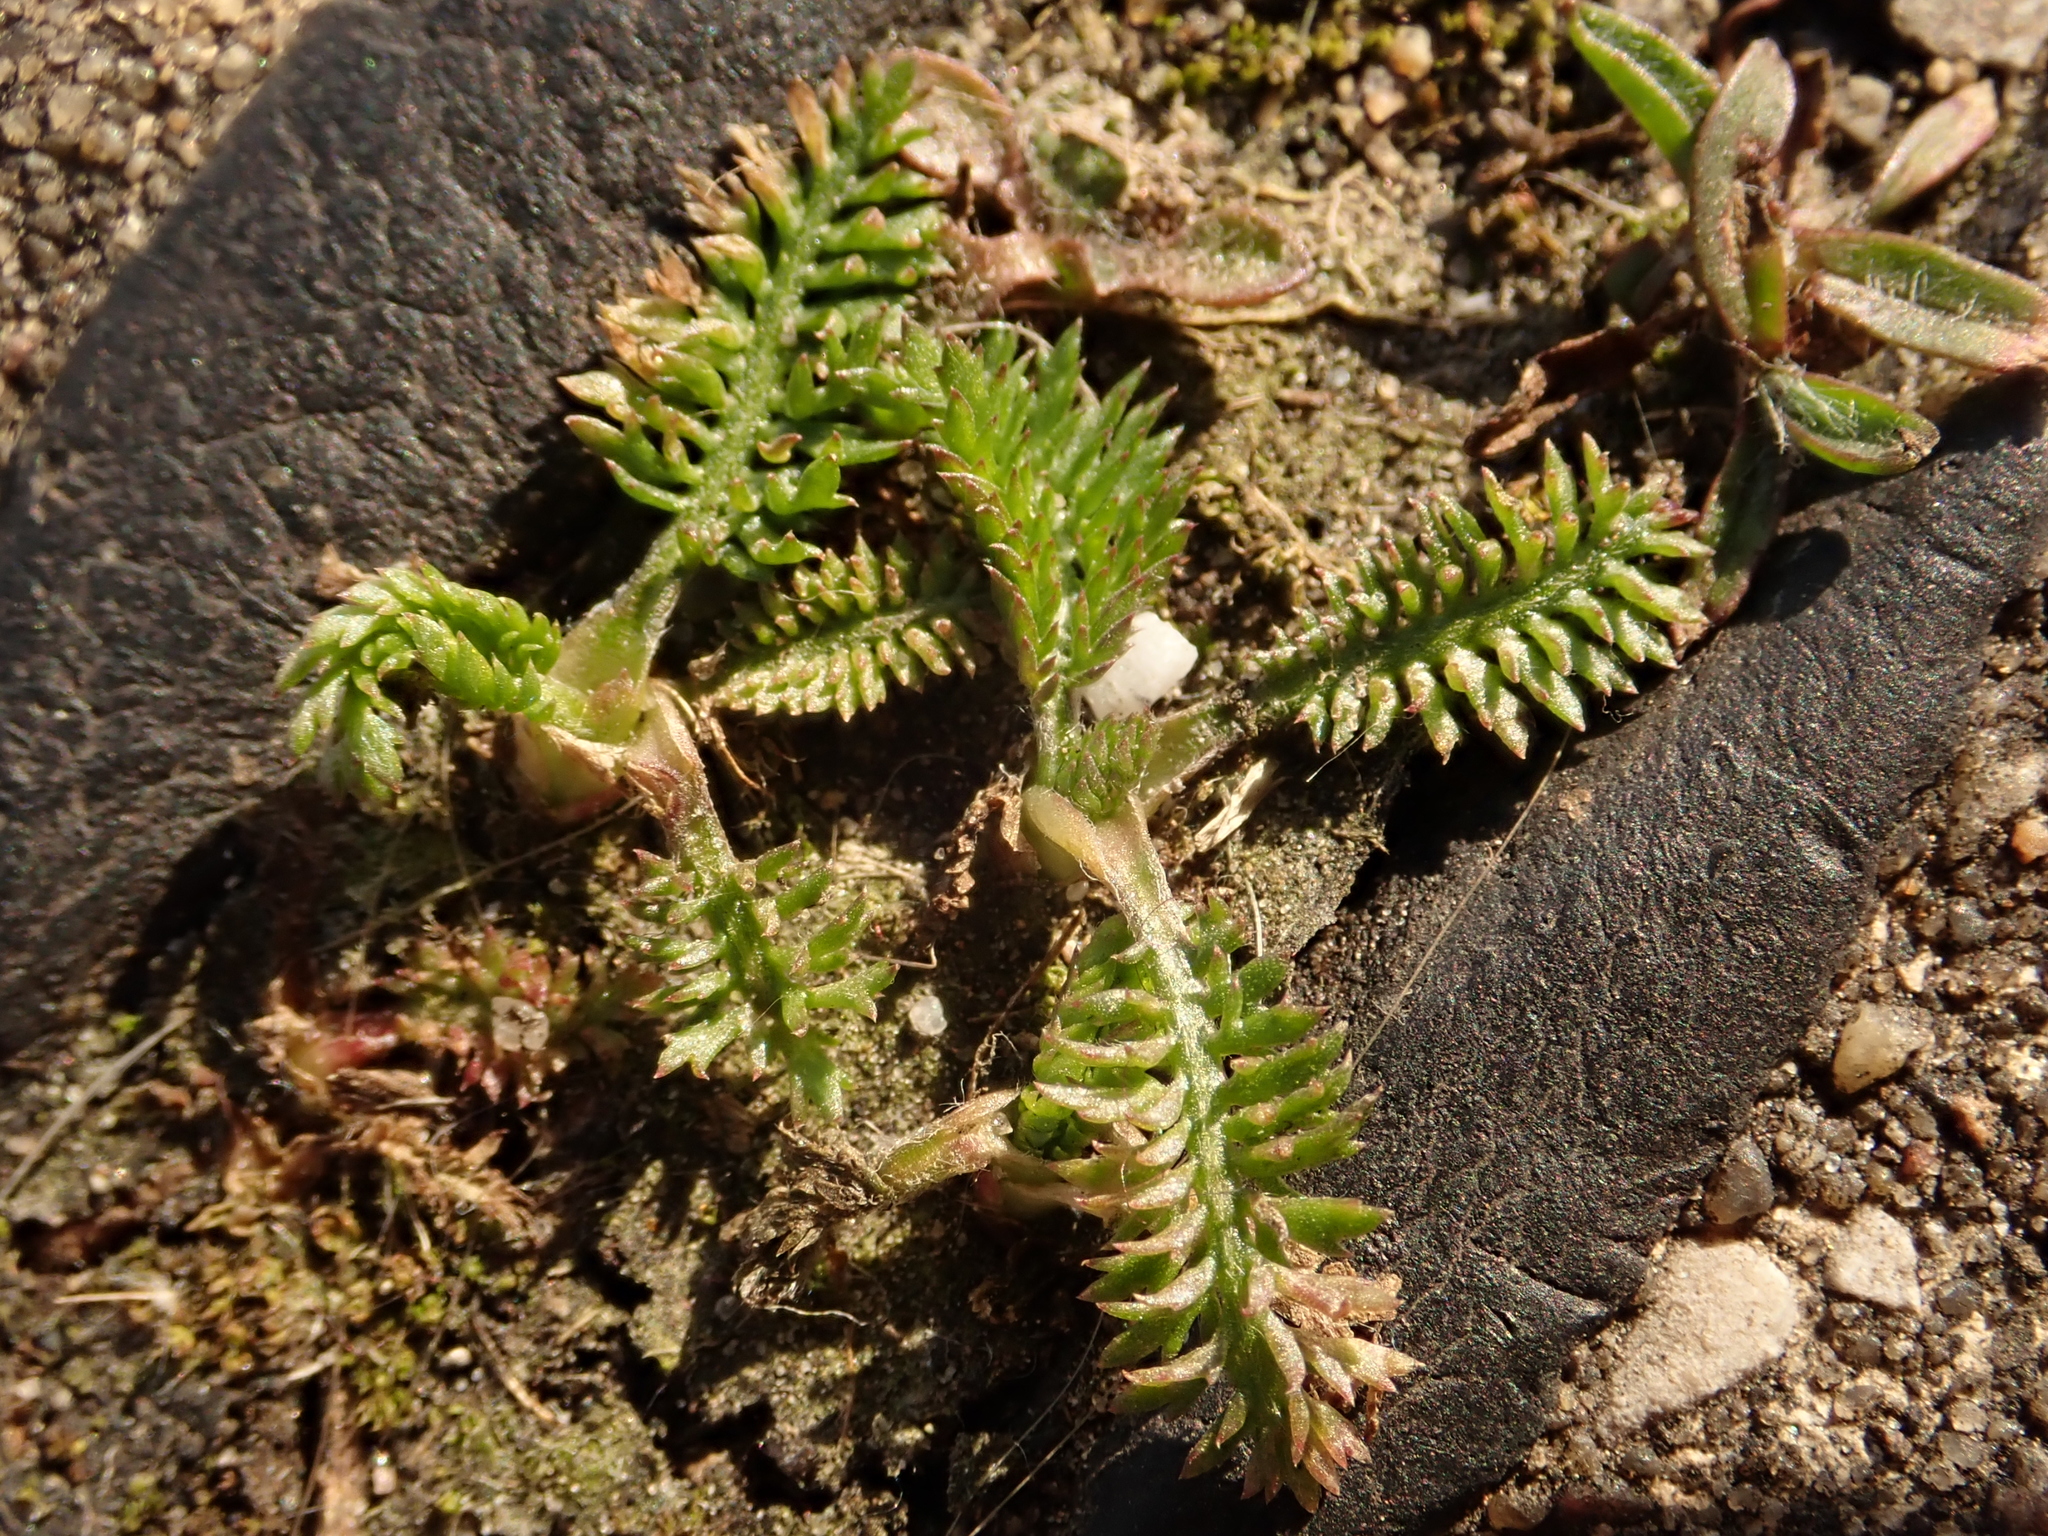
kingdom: Plantae
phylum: Tracheophyta
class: Magnoliopsida
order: Asterales
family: Asteraceae
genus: Achillea
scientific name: Achillea millefolium
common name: Yarrow
